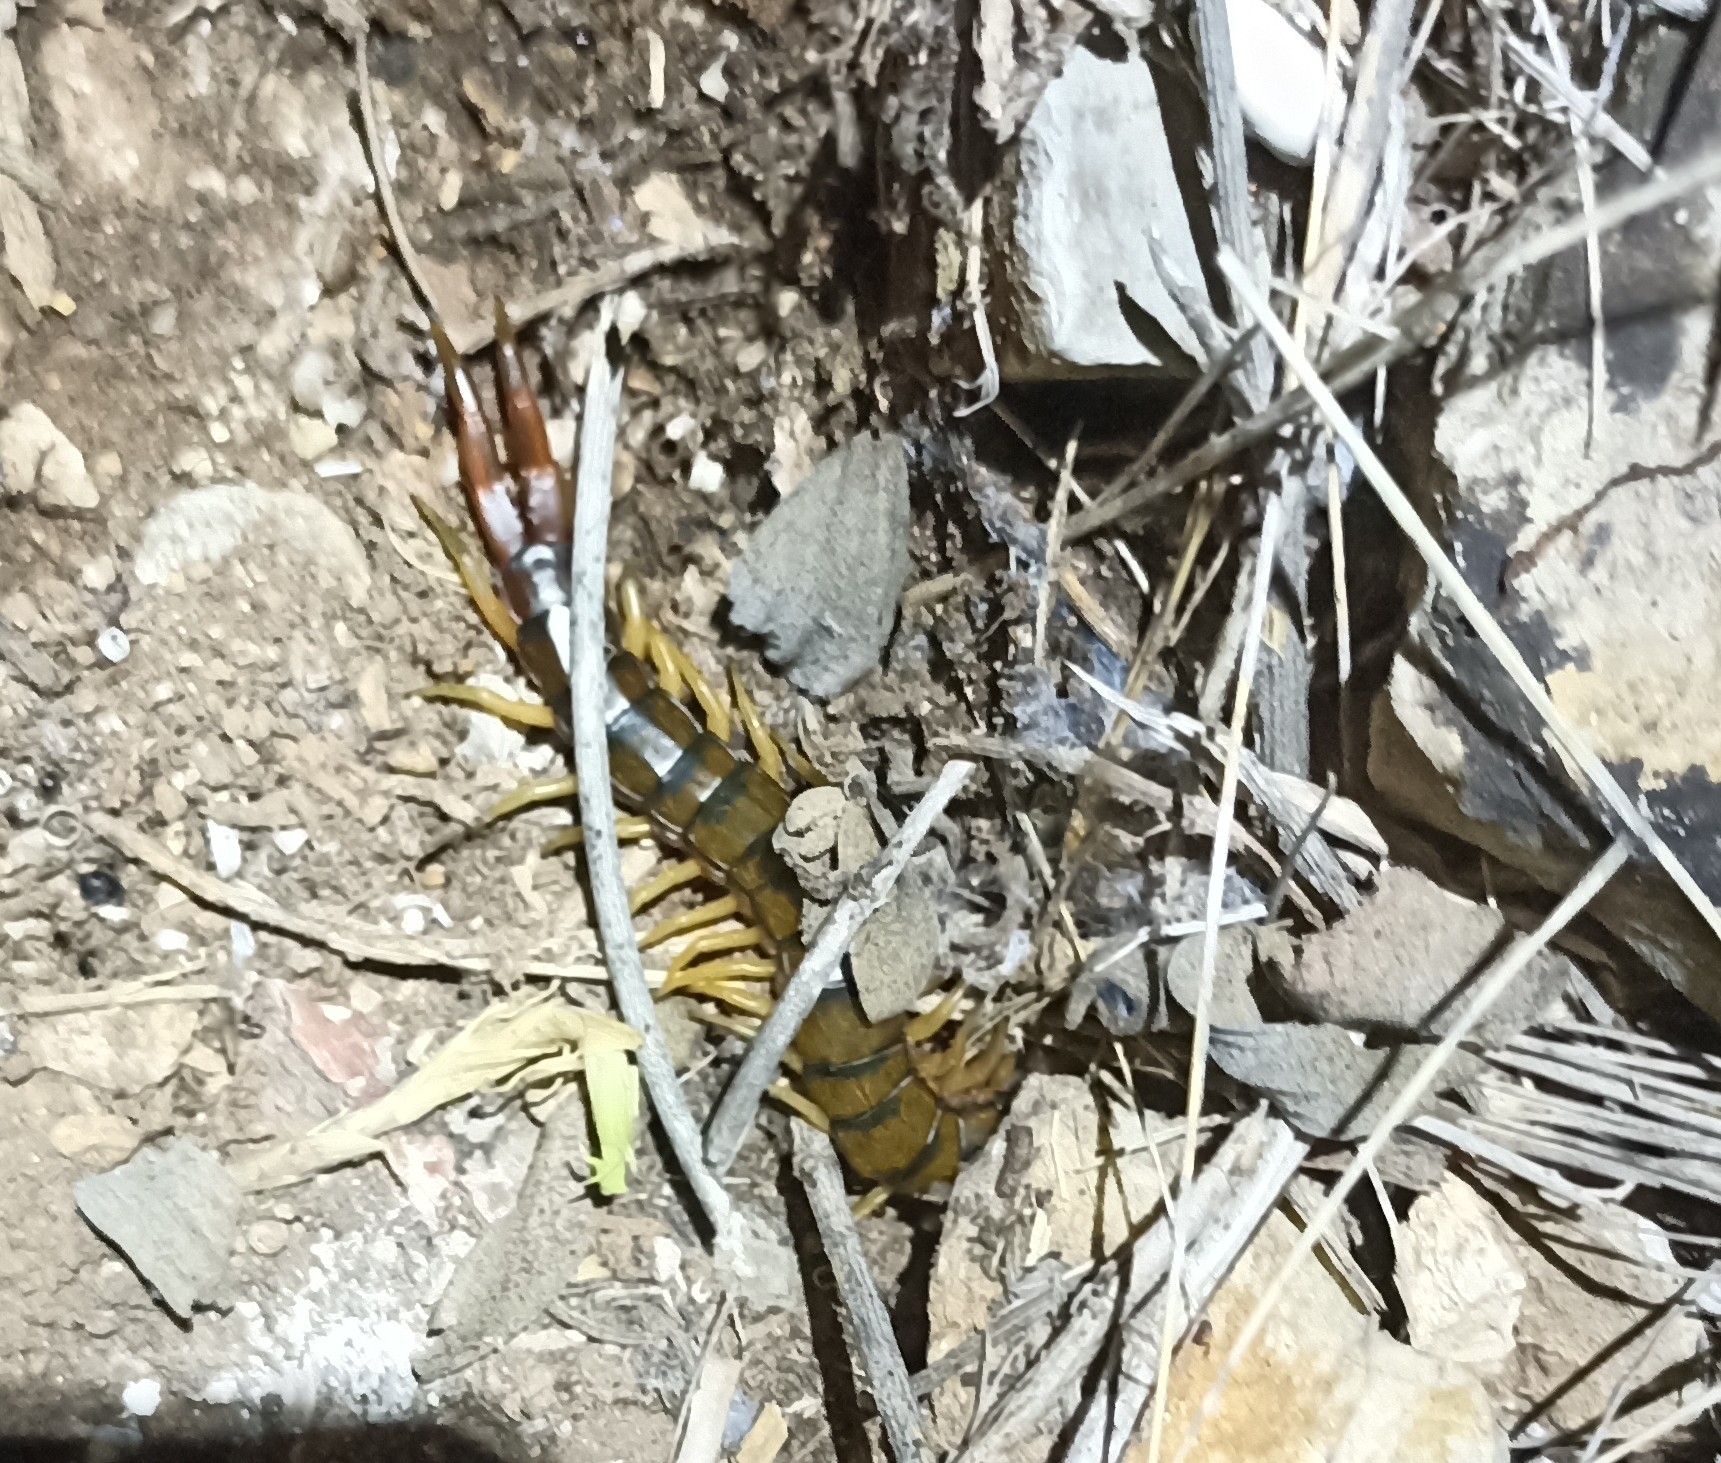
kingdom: Animalia
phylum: Arthropoda
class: Chilopoda
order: Scolopendromorpha
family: Scolopendridae
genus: Scolopendra
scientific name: Scolopendra cingulata
